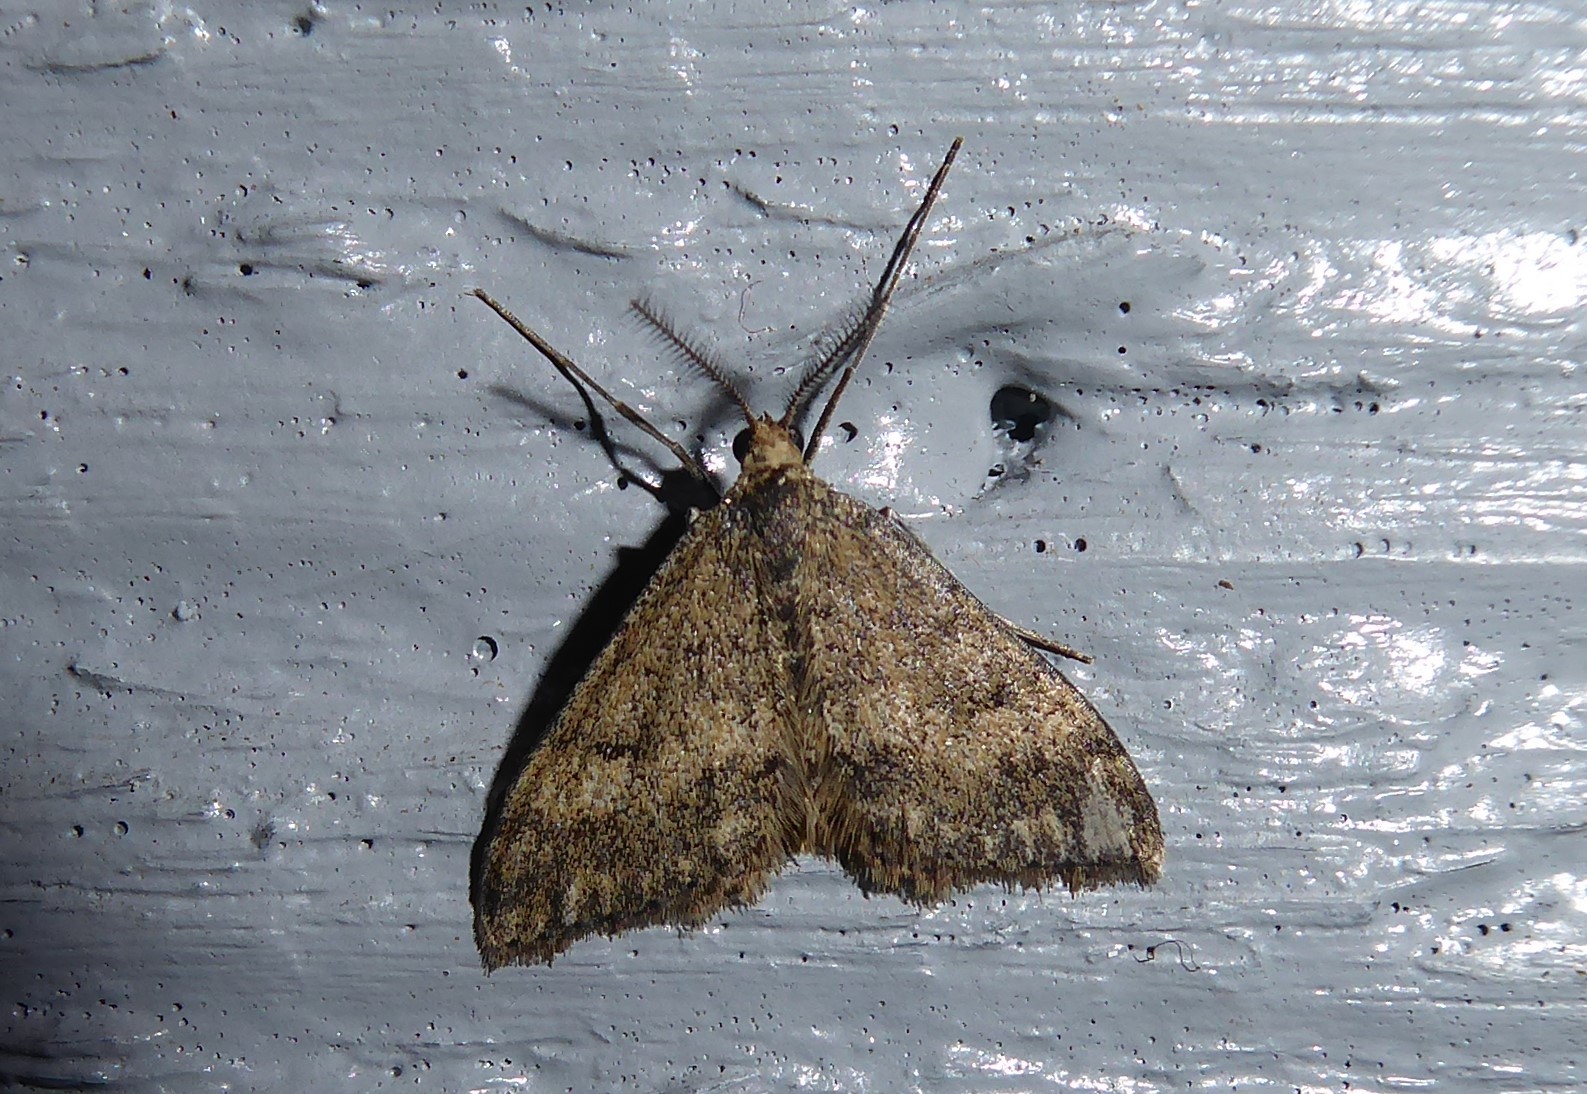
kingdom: Animalia
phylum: Arthropoda
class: Insecta
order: Lepidoptera
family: Geometridae
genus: Scopula
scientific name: Scopula rubraria
